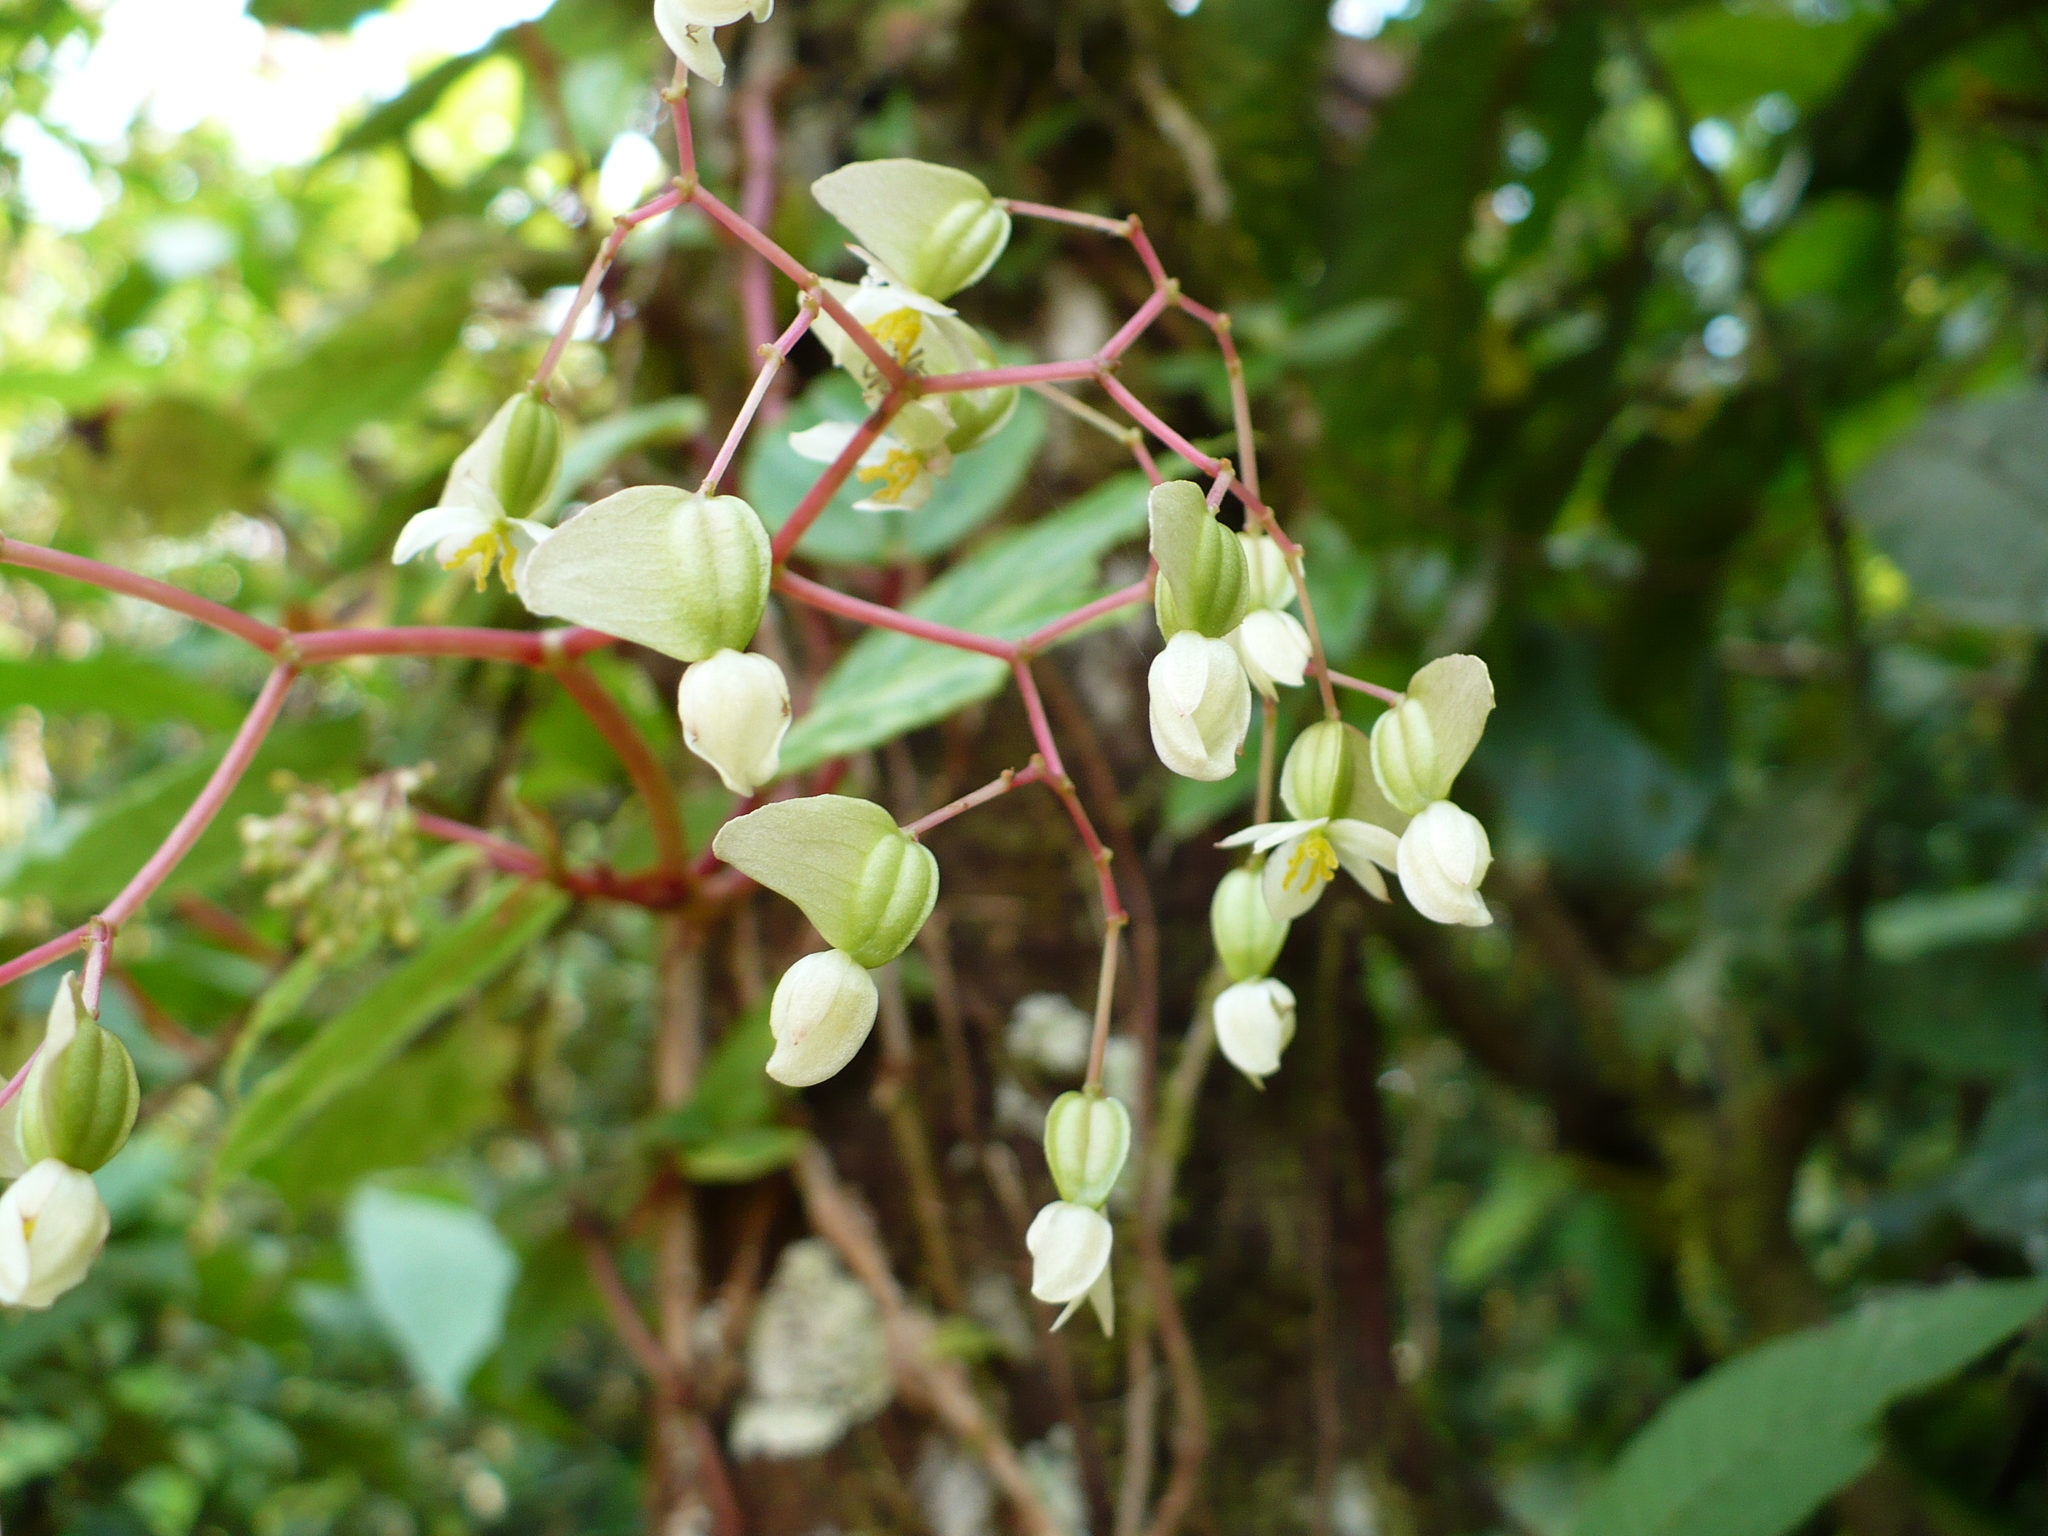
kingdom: Plantae
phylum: Tracheophyta
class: Magnoliopsida
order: Cucurbitales
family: Begoniaceae
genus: Begonia
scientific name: Begonia glabra
